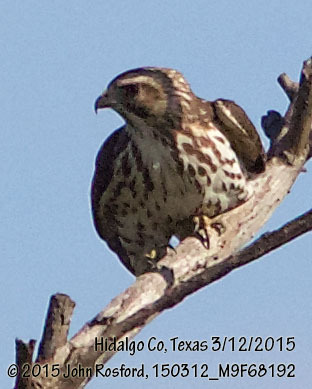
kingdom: Animalia
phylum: Chordata
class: Aves
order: Accipitriformes
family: Accipitridae
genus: Buteo
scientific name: Buteo platypterus
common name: Broad-winged hawk
